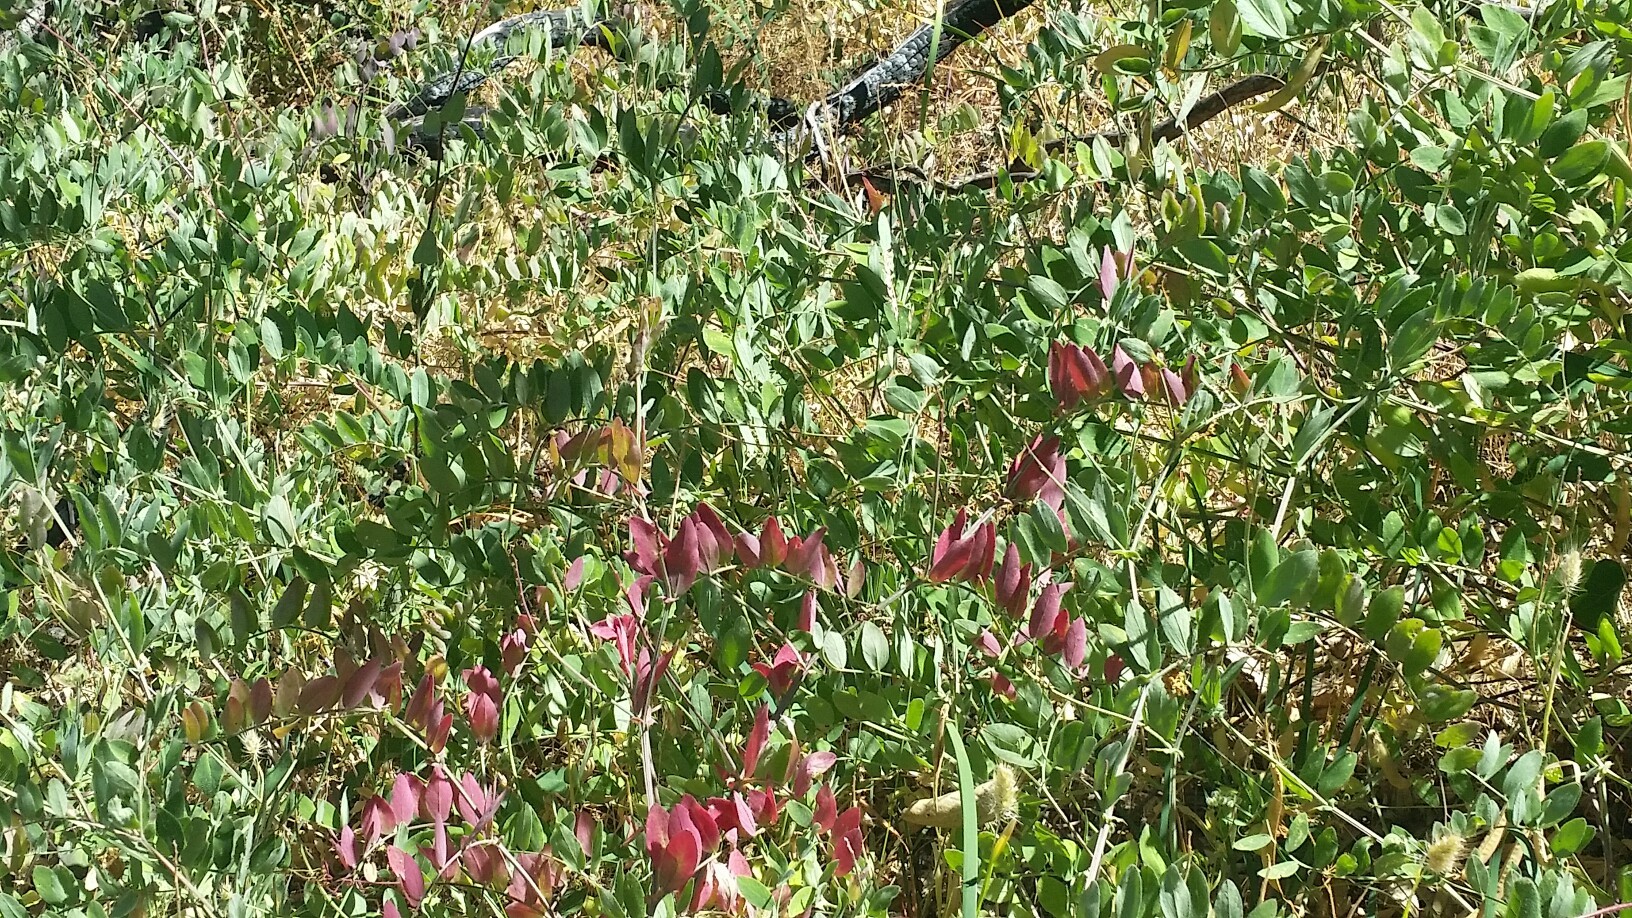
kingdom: Plantae
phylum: Tracheophyta
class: Magnoliopsida
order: Fabales
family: Fabaceae
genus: Lathyrus
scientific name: Lathyrus vestitus
